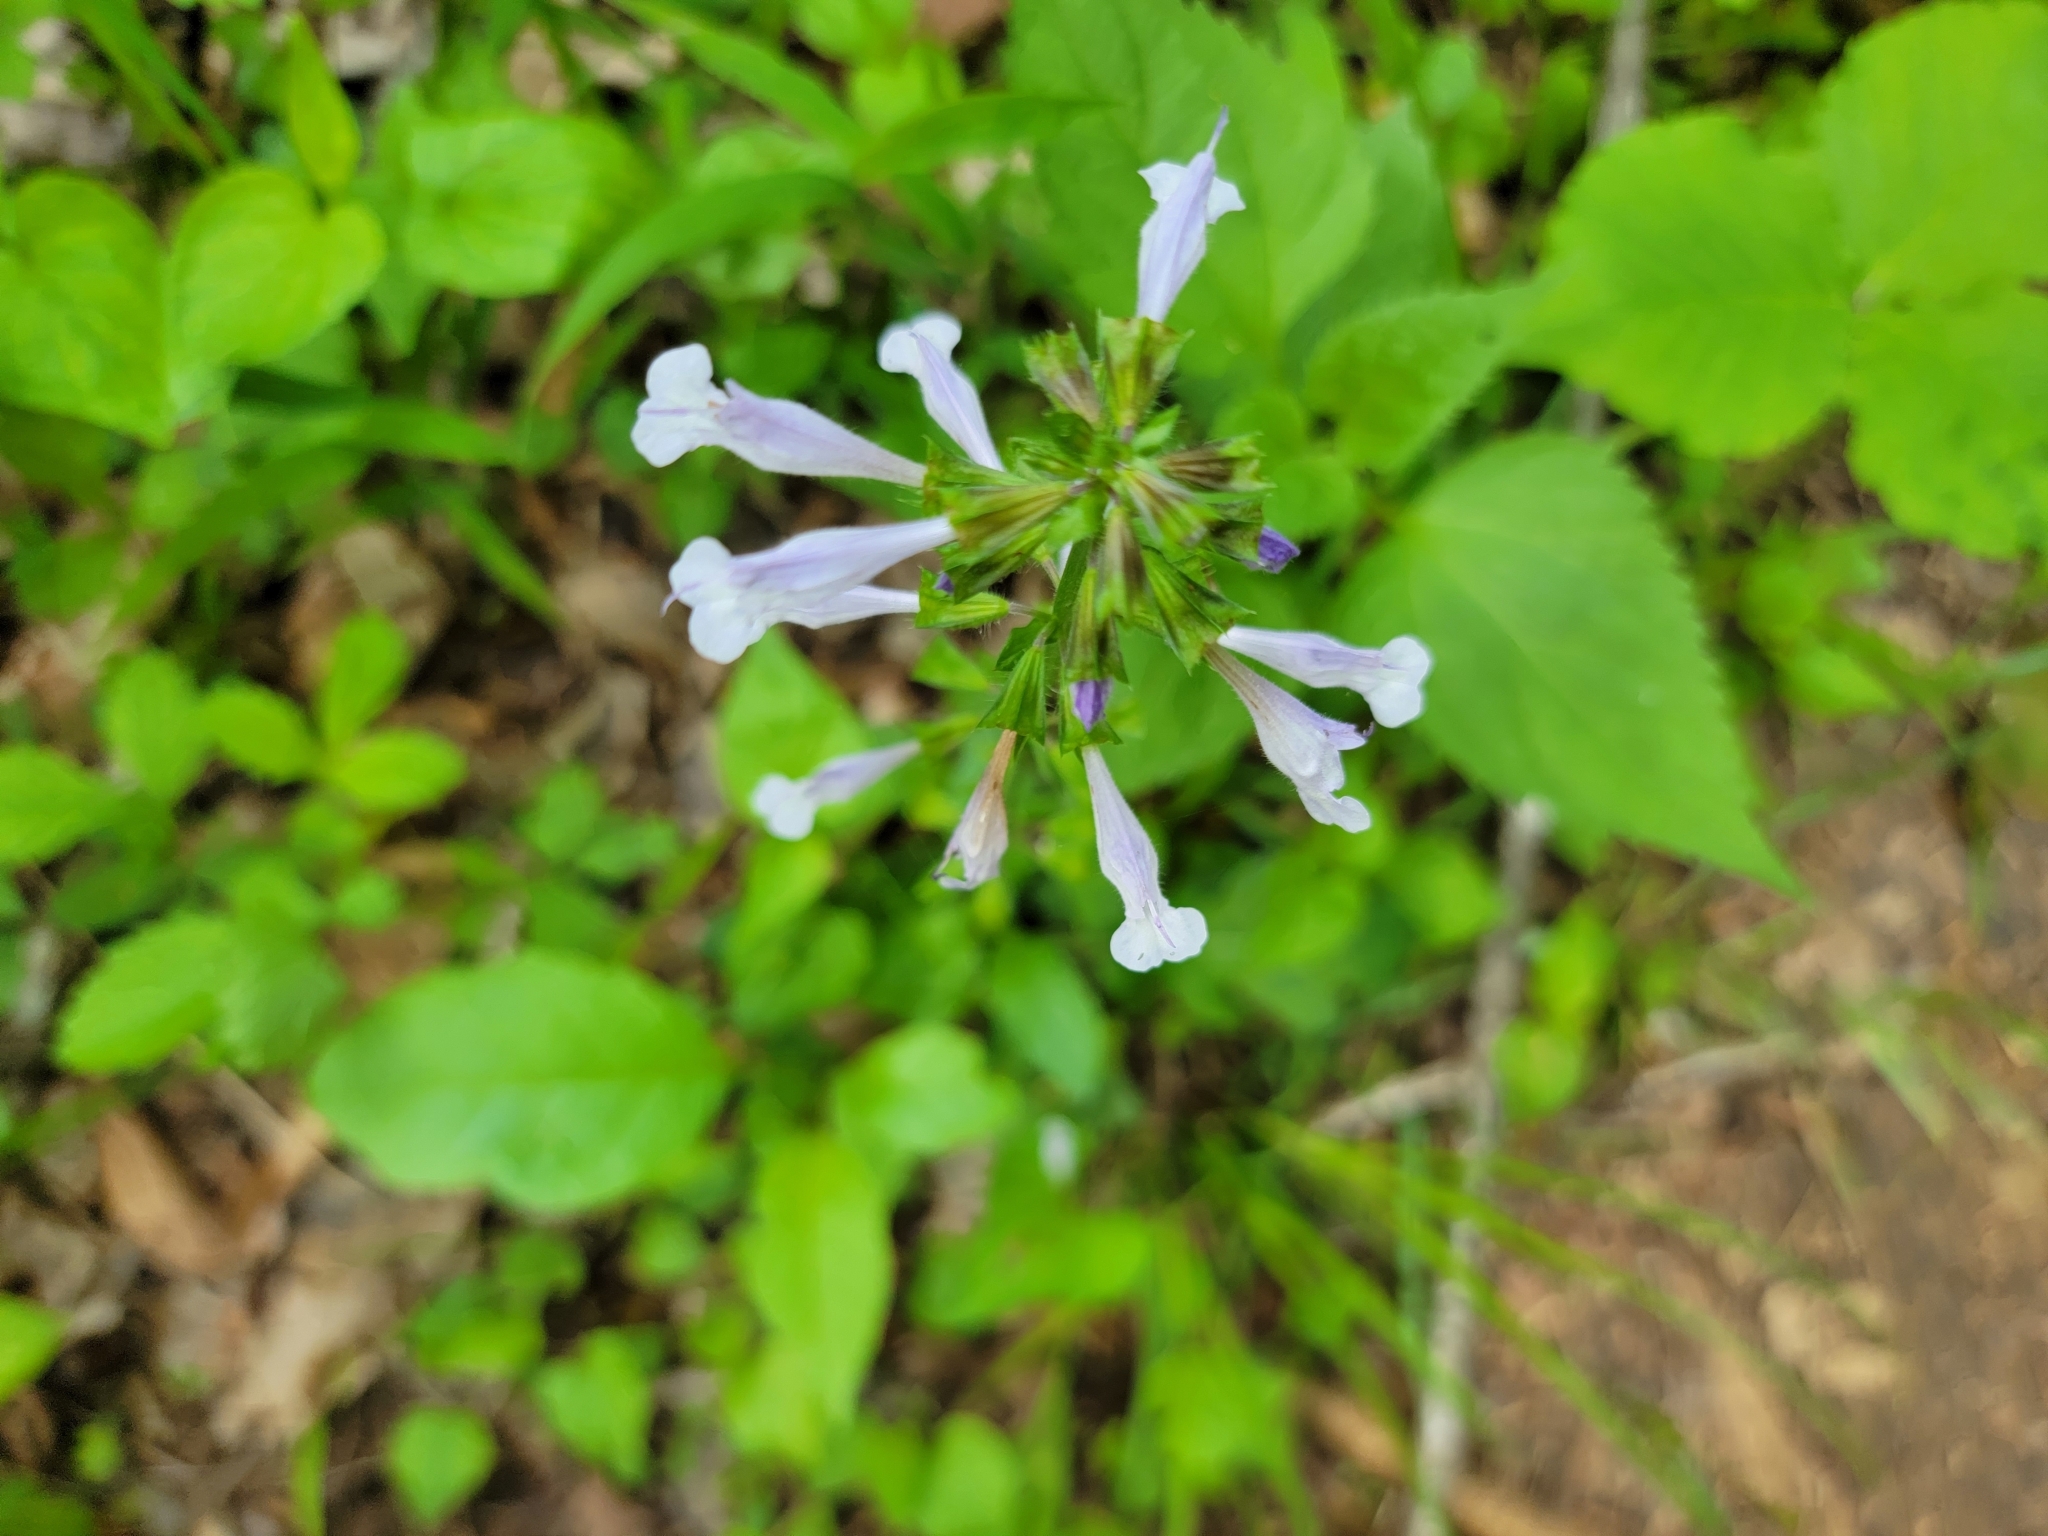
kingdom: Plantae
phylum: Tracheophyta
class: Magnoliopsida
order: Lamiales
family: Lamiaceae
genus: Salvia
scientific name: Salvia lyrata
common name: Cancerweed
